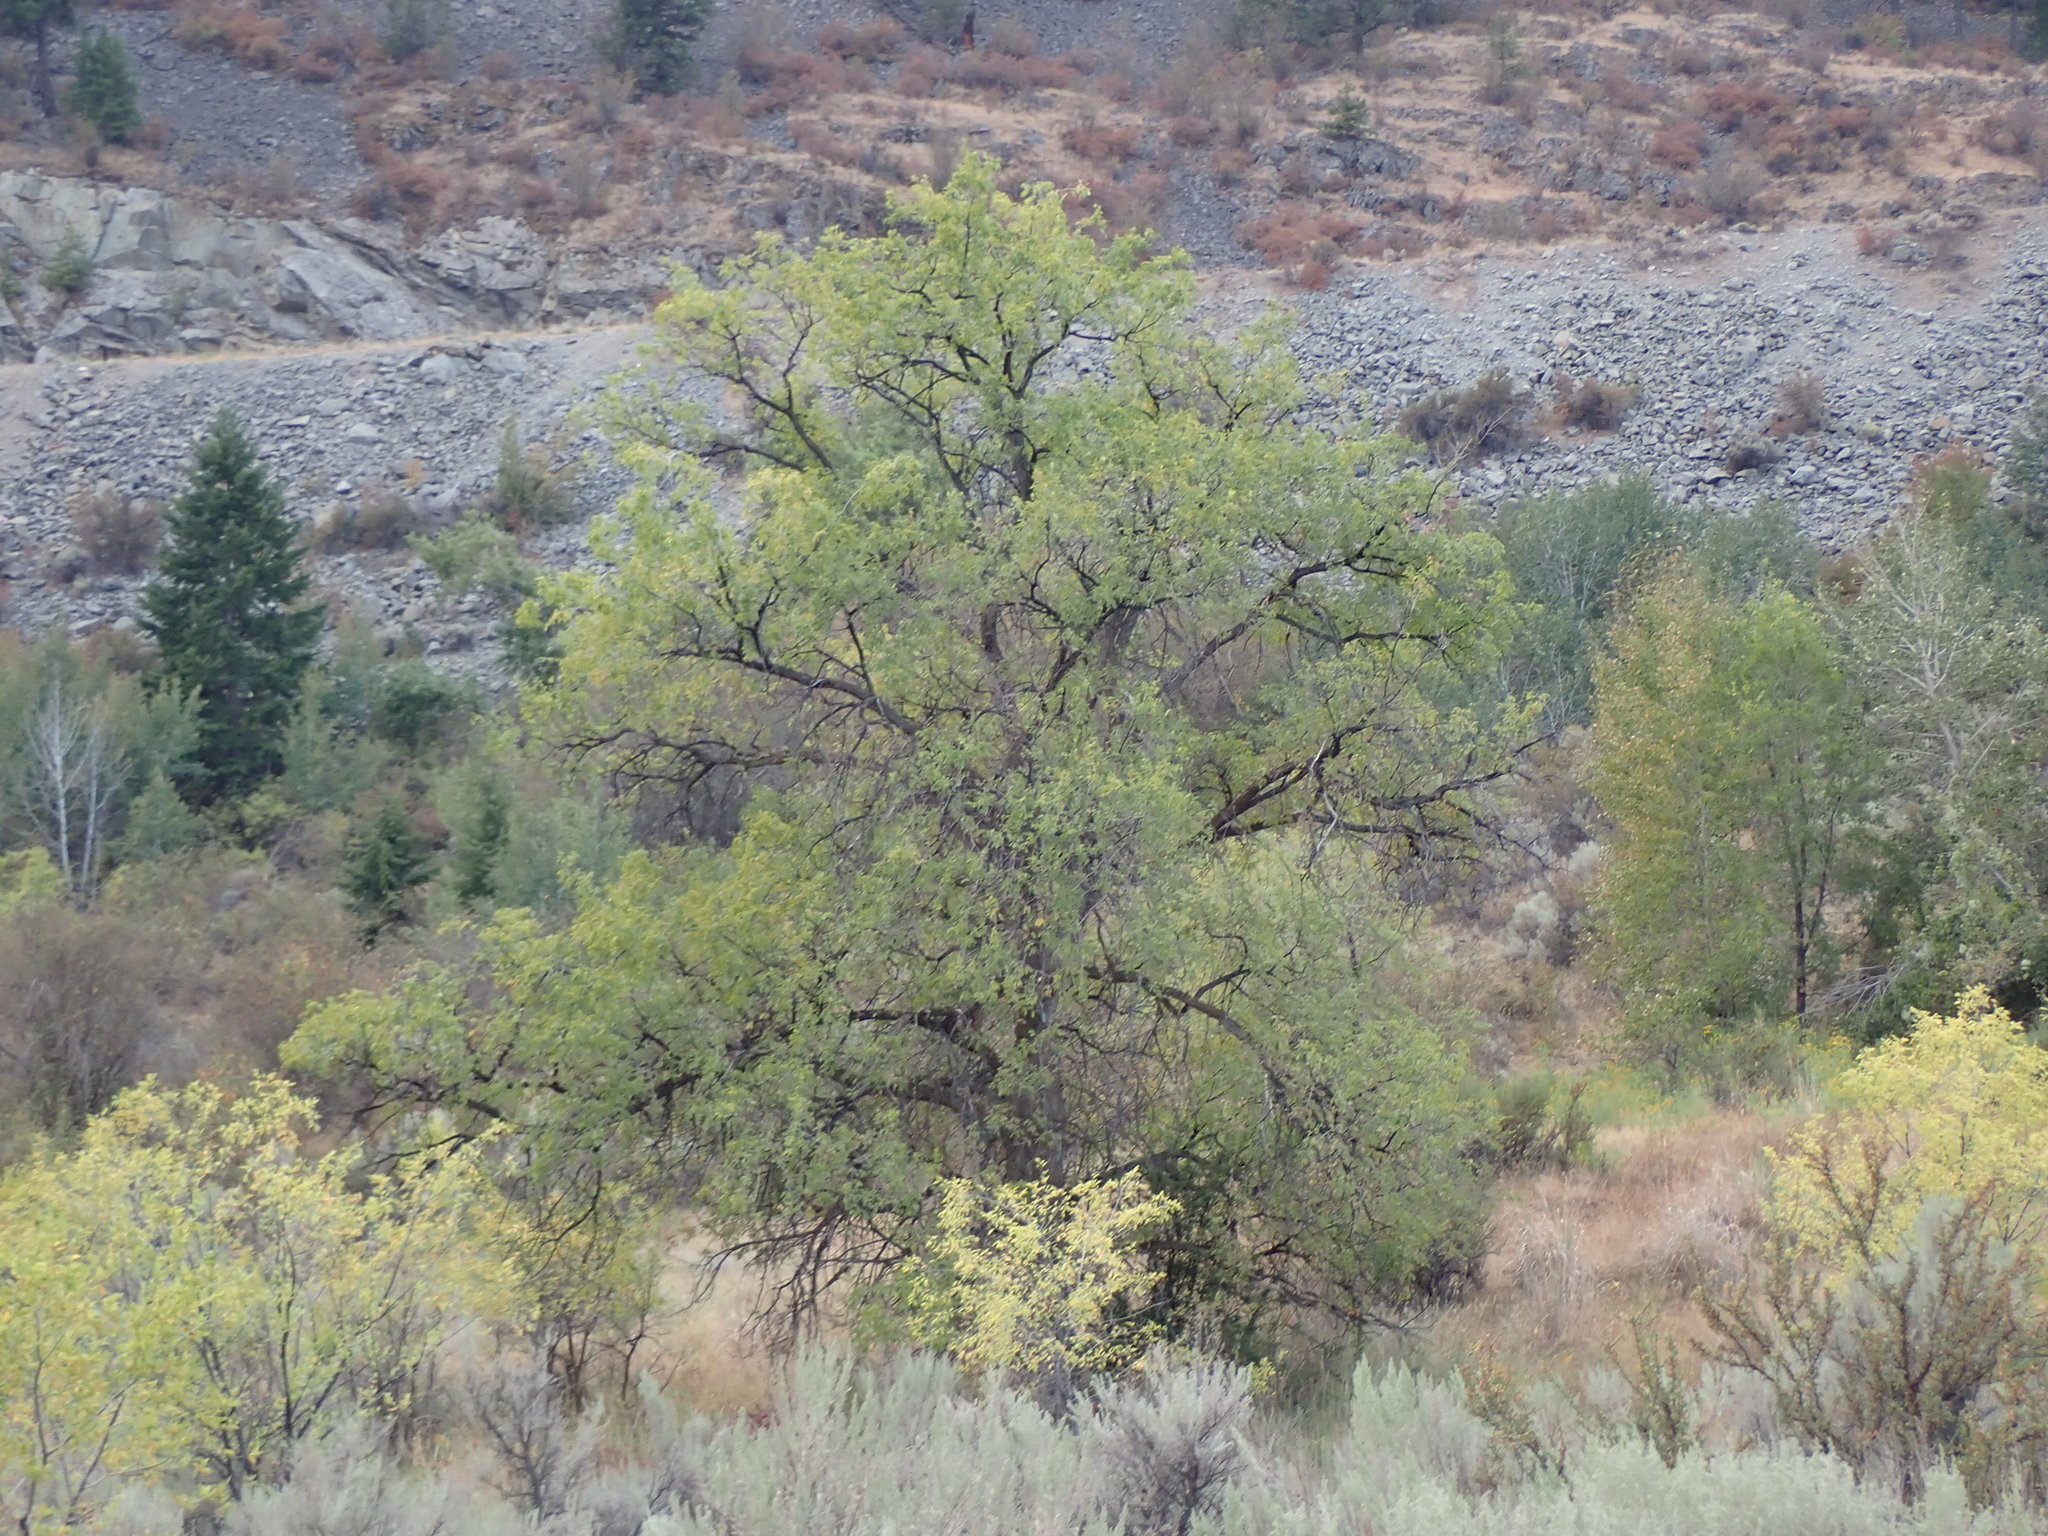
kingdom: Plantae
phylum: Tracheophyta
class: Magnoliopsida
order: Rosales
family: Ulmaceae
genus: Ulmus
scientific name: Ulmus pumila
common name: Siberian elm
